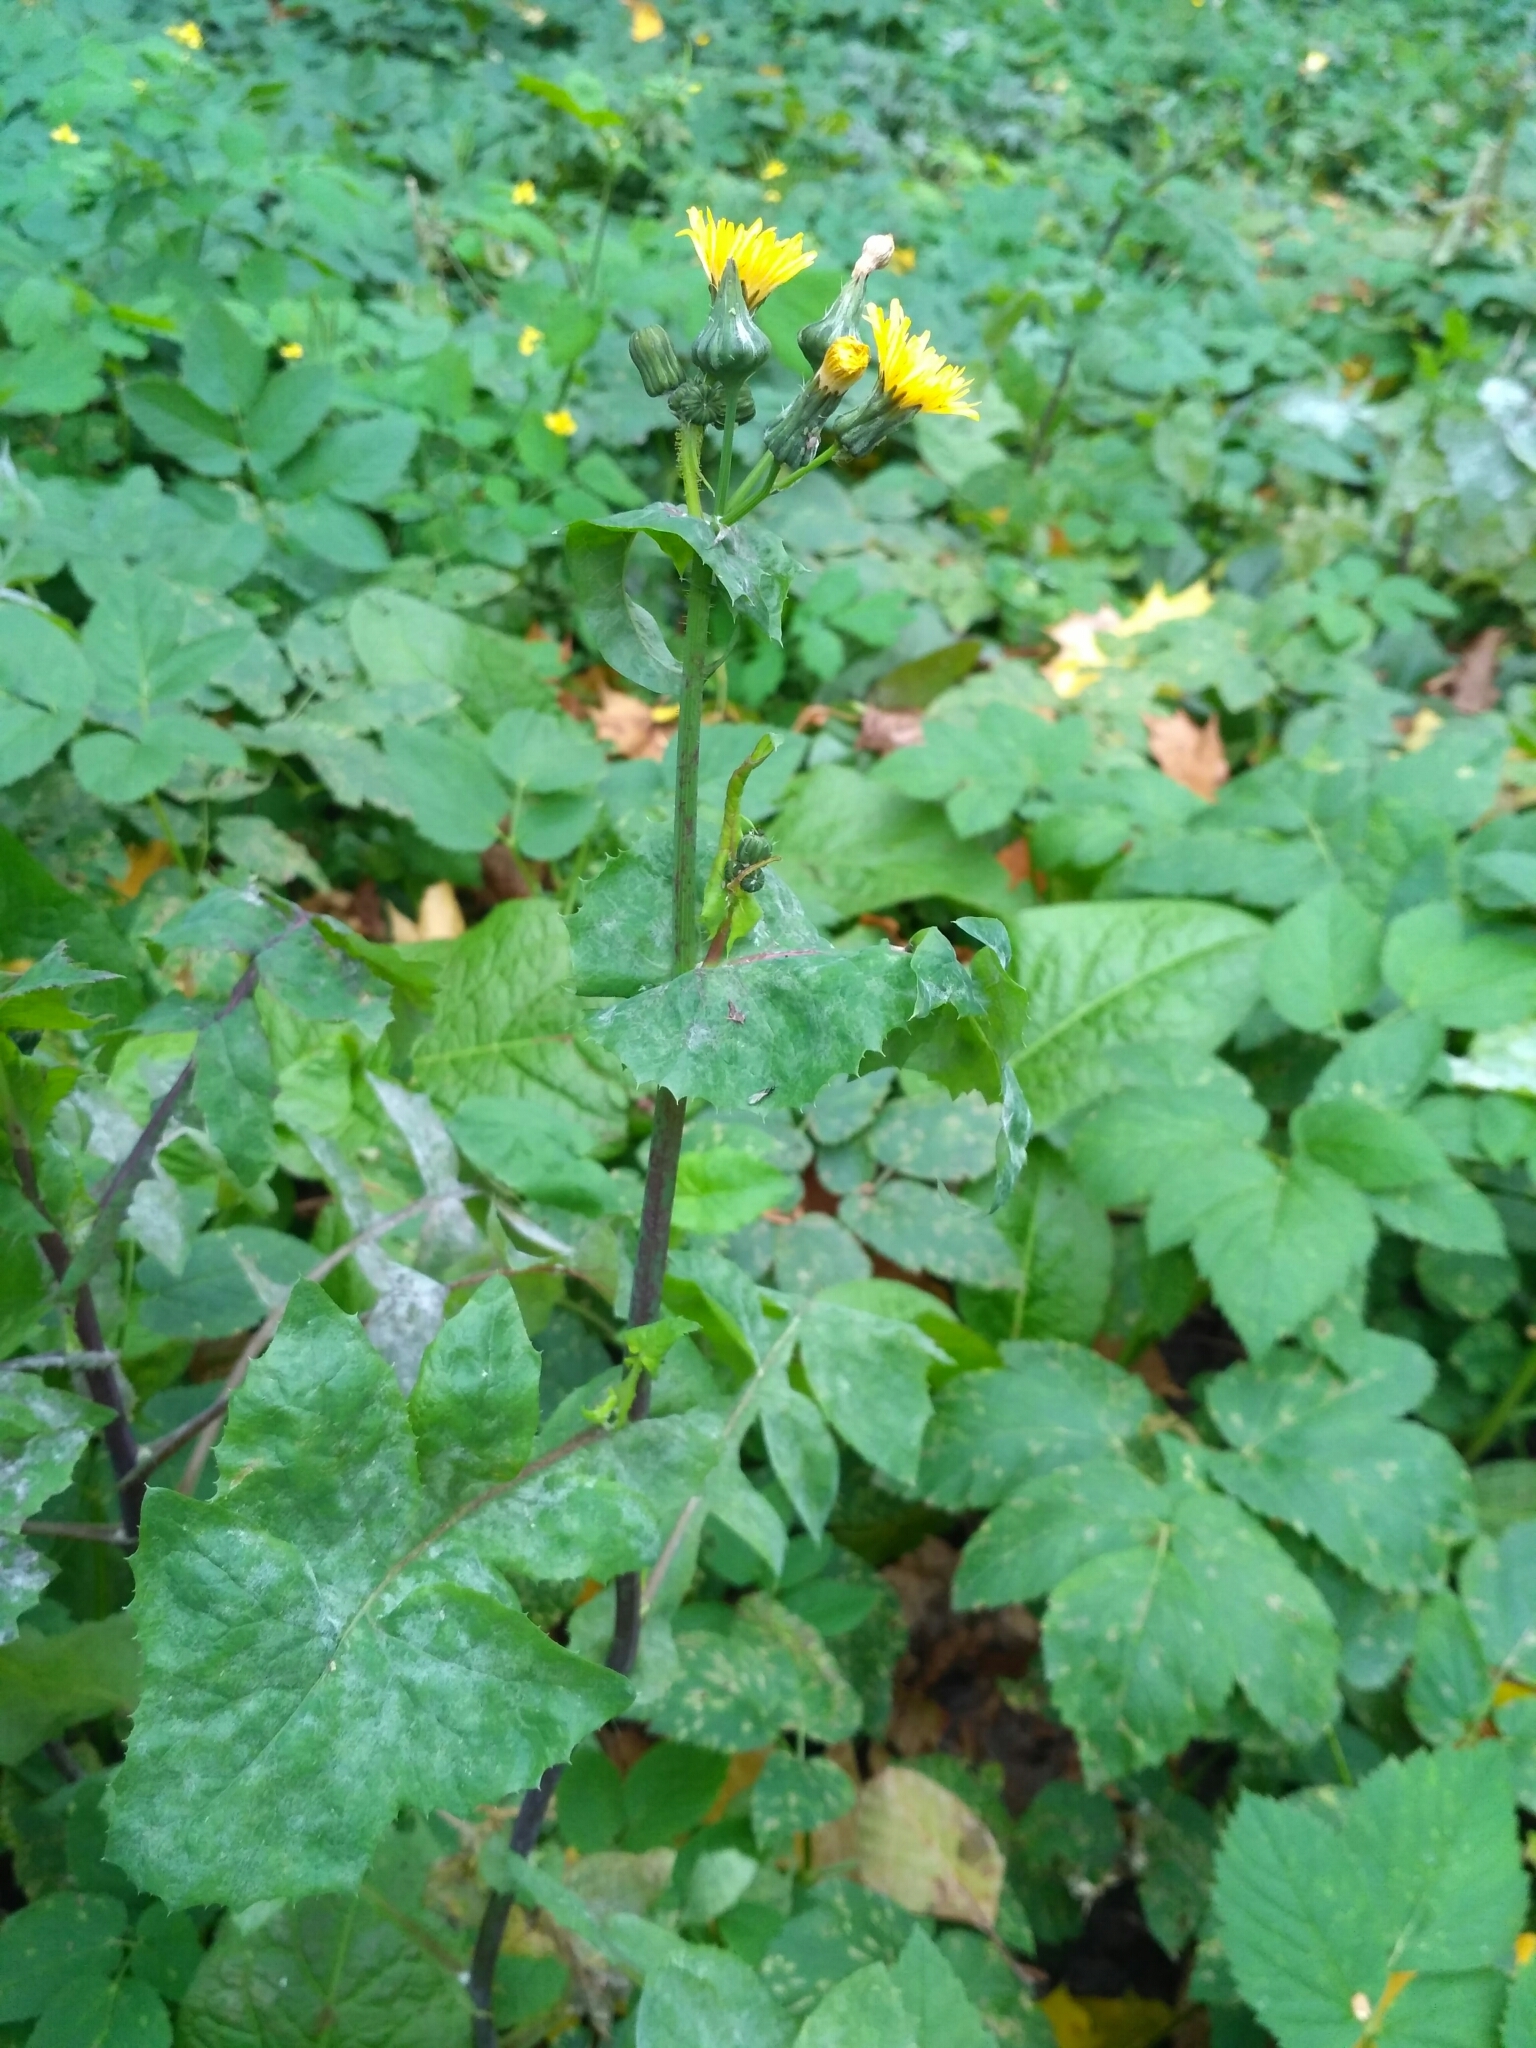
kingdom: Plantae
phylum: Tracheophyta
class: Magnoliopsida
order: Asterales
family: Asteraceae
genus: Sonchus
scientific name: Sonchus oleraceus
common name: Common sowthistle
